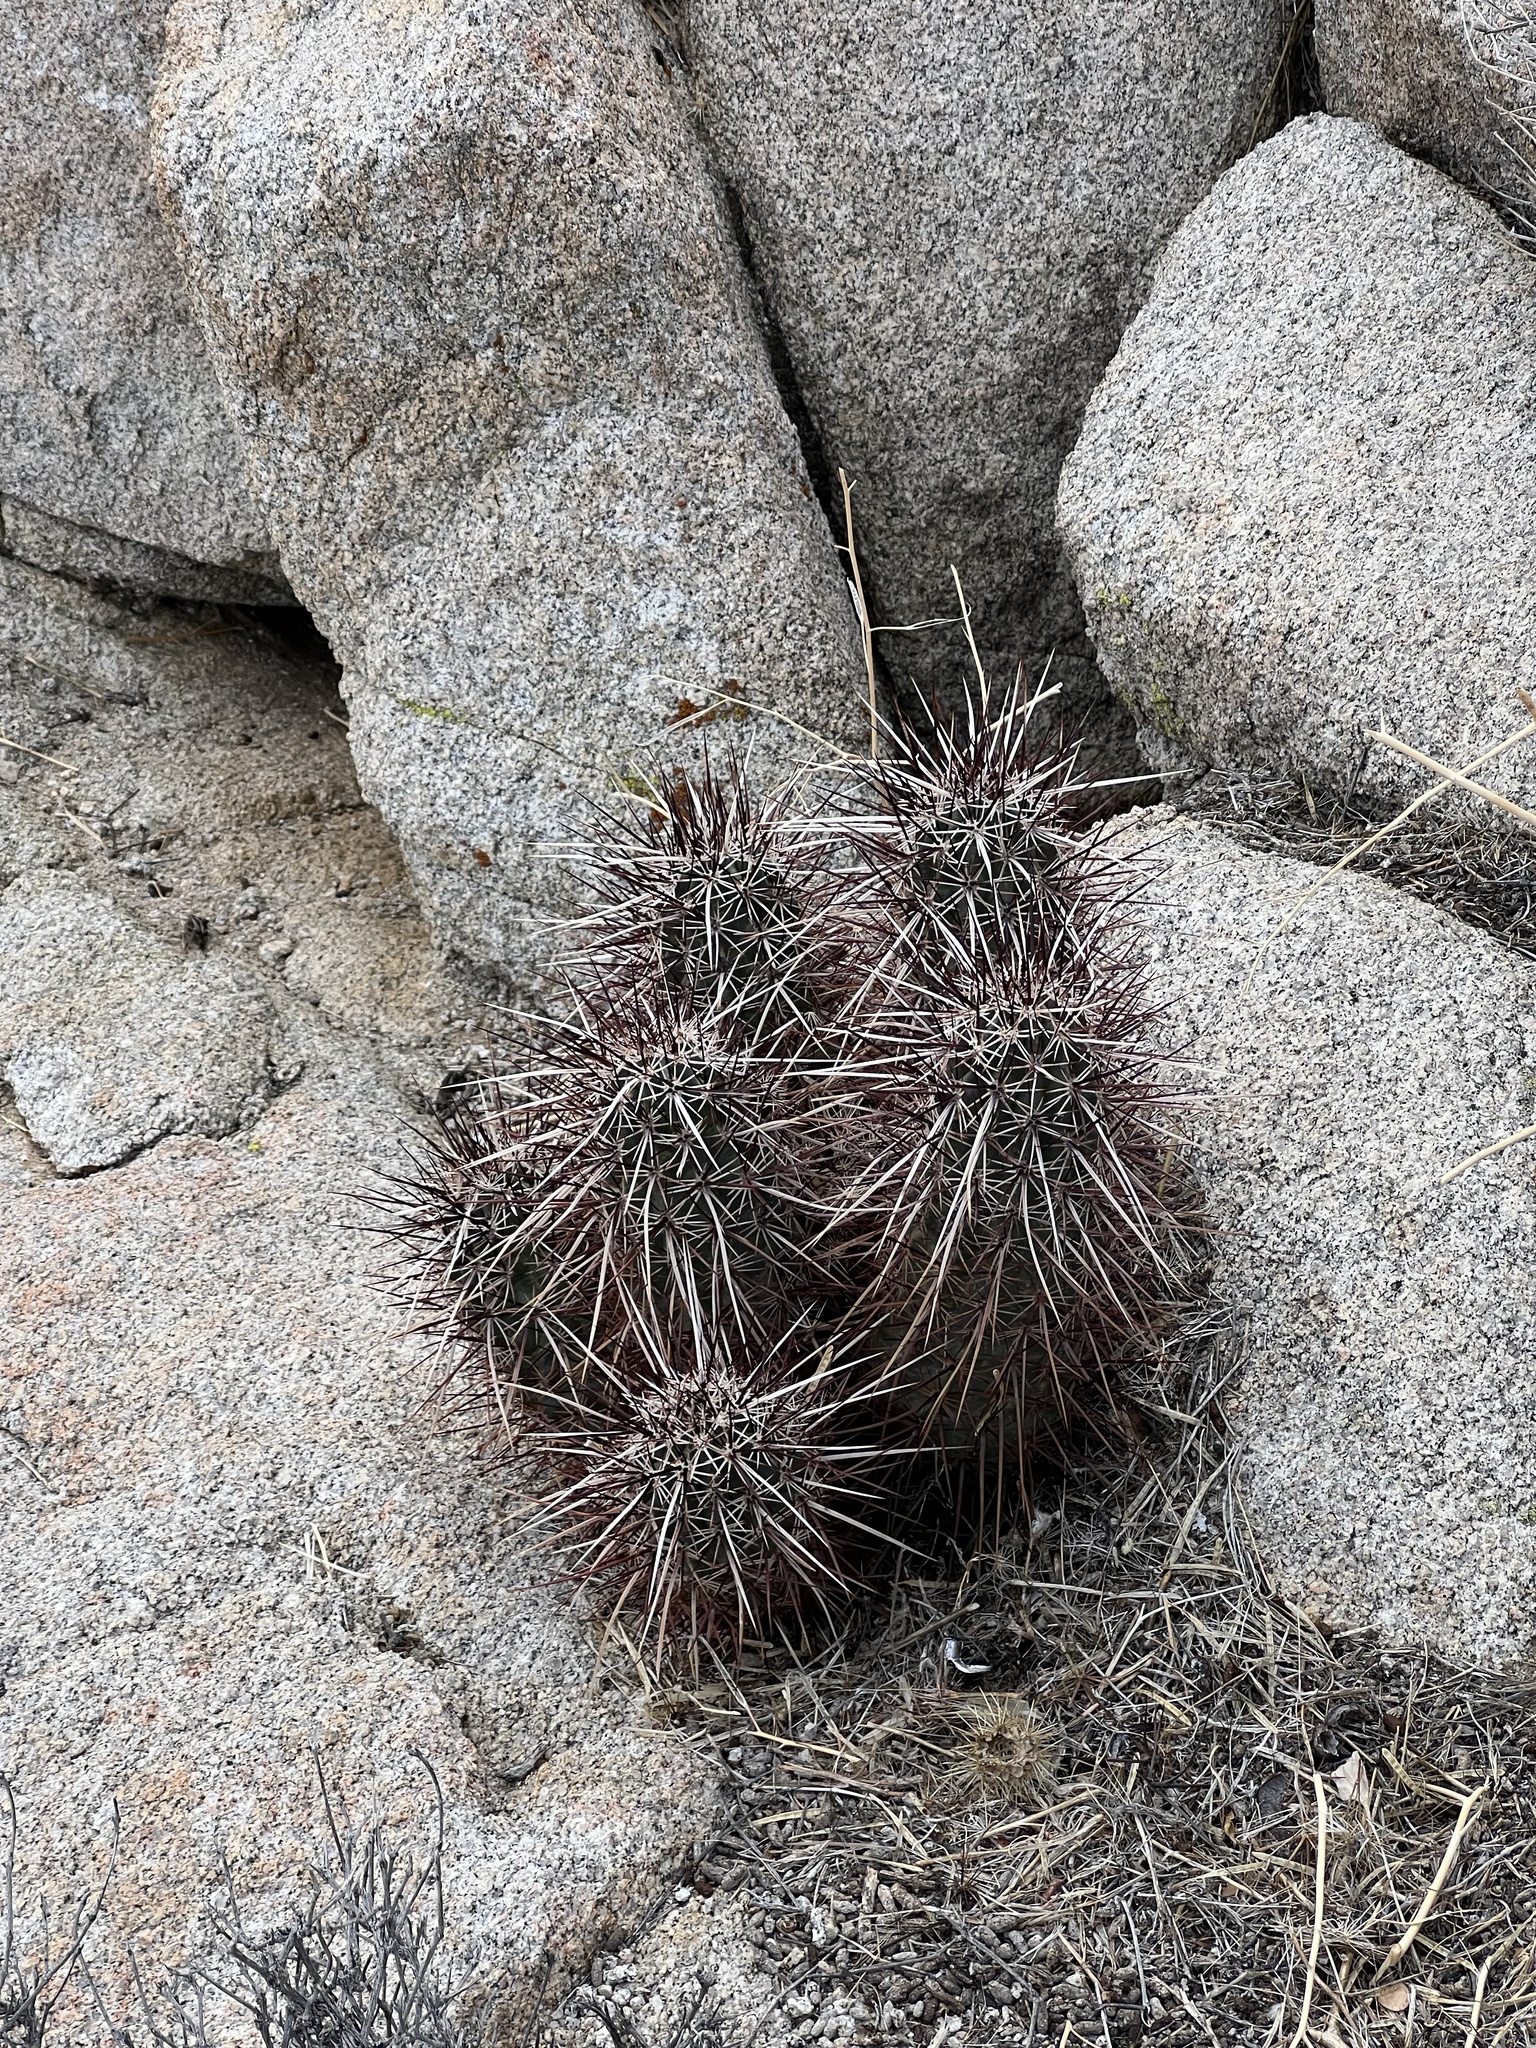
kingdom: Plantae
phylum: Tracheophyta
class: Magnoliopsida
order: Caryophyllales
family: Cactaceae
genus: Echinocereus
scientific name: Echinocereus engelmannii
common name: Engelmann's hedgehog cactus
